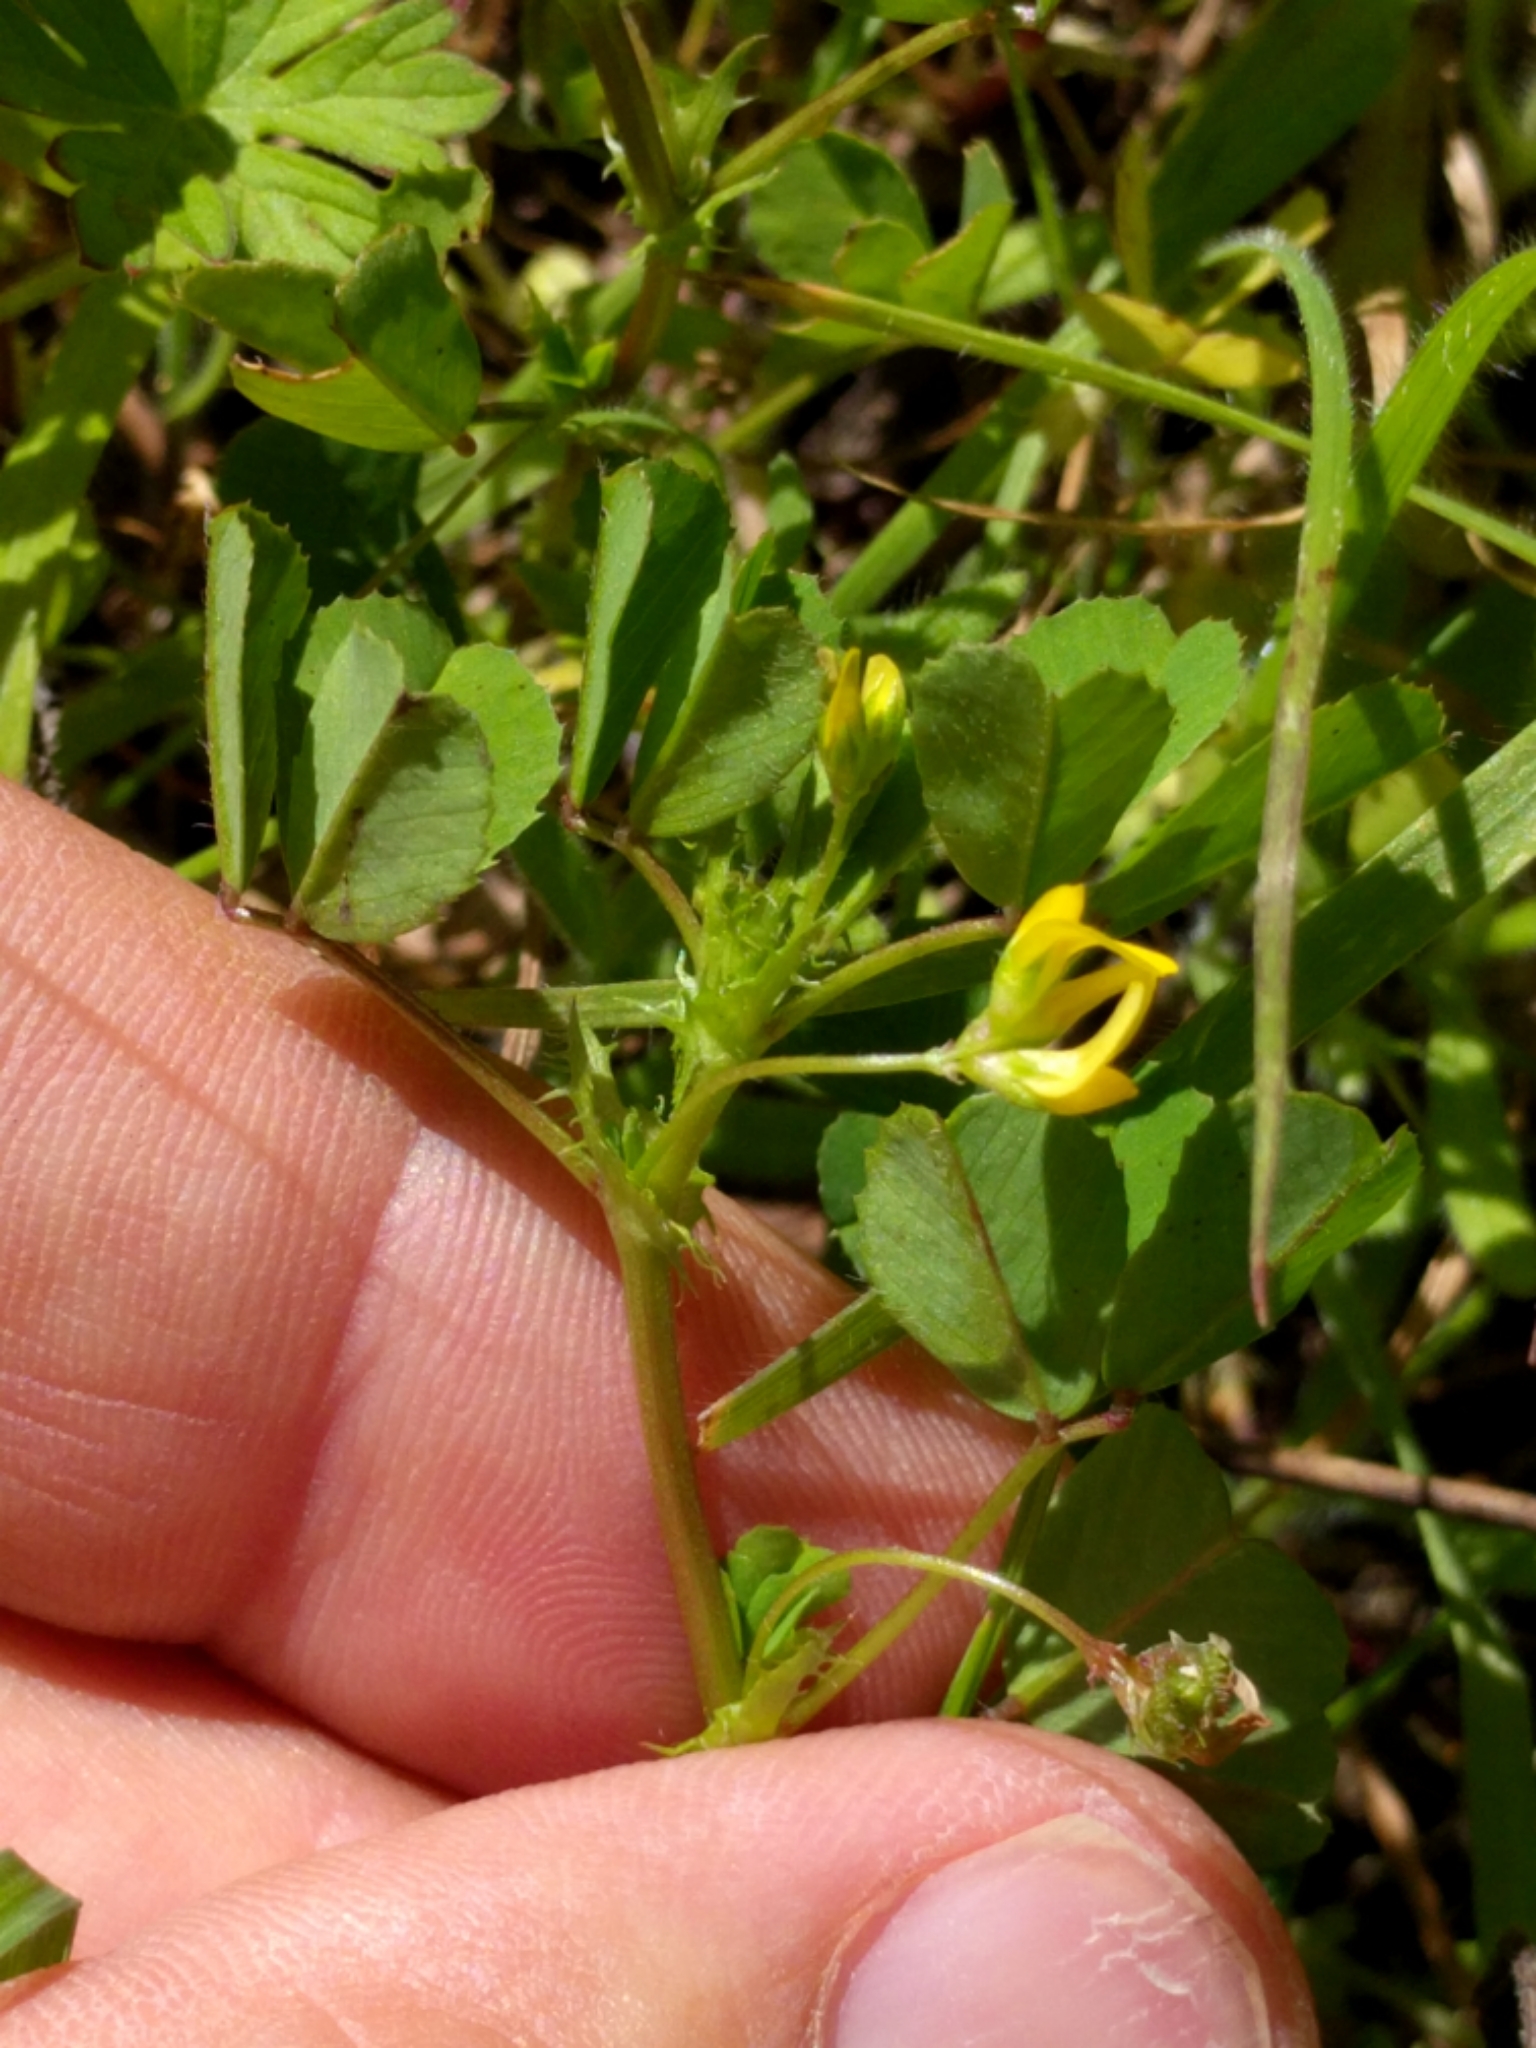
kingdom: Plantae
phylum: Tracheophyta
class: Magnoliopsida
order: Fabales
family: Fabaceae
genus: Medicago
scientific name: Medicago polymorpha
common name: Burclover
